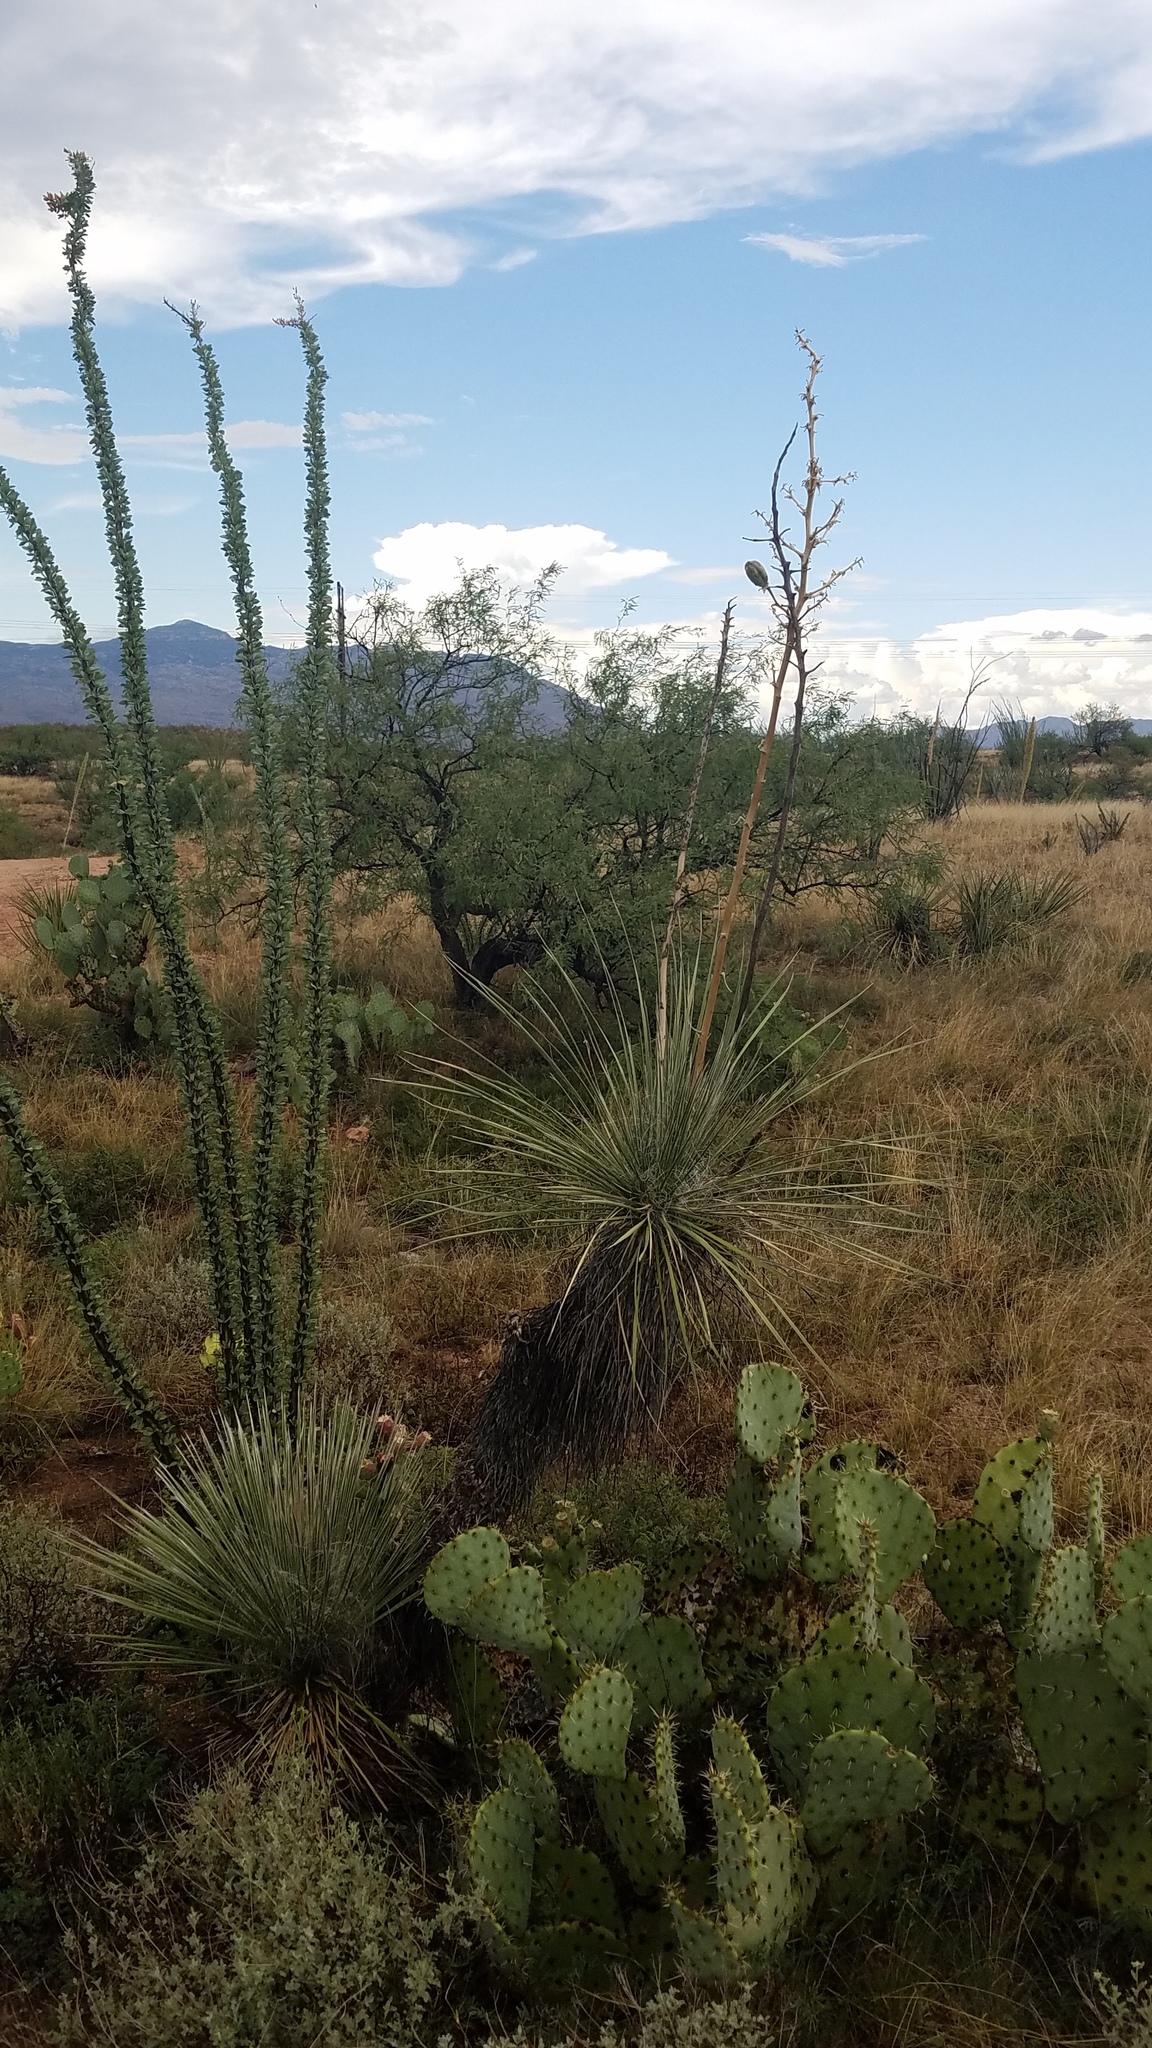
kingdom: Plantae
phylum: Tracheophyta
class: Liliopsida
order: Asparagales
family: Asparagaceae
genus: Yucca
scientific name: Yucca elata
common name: Palmella
